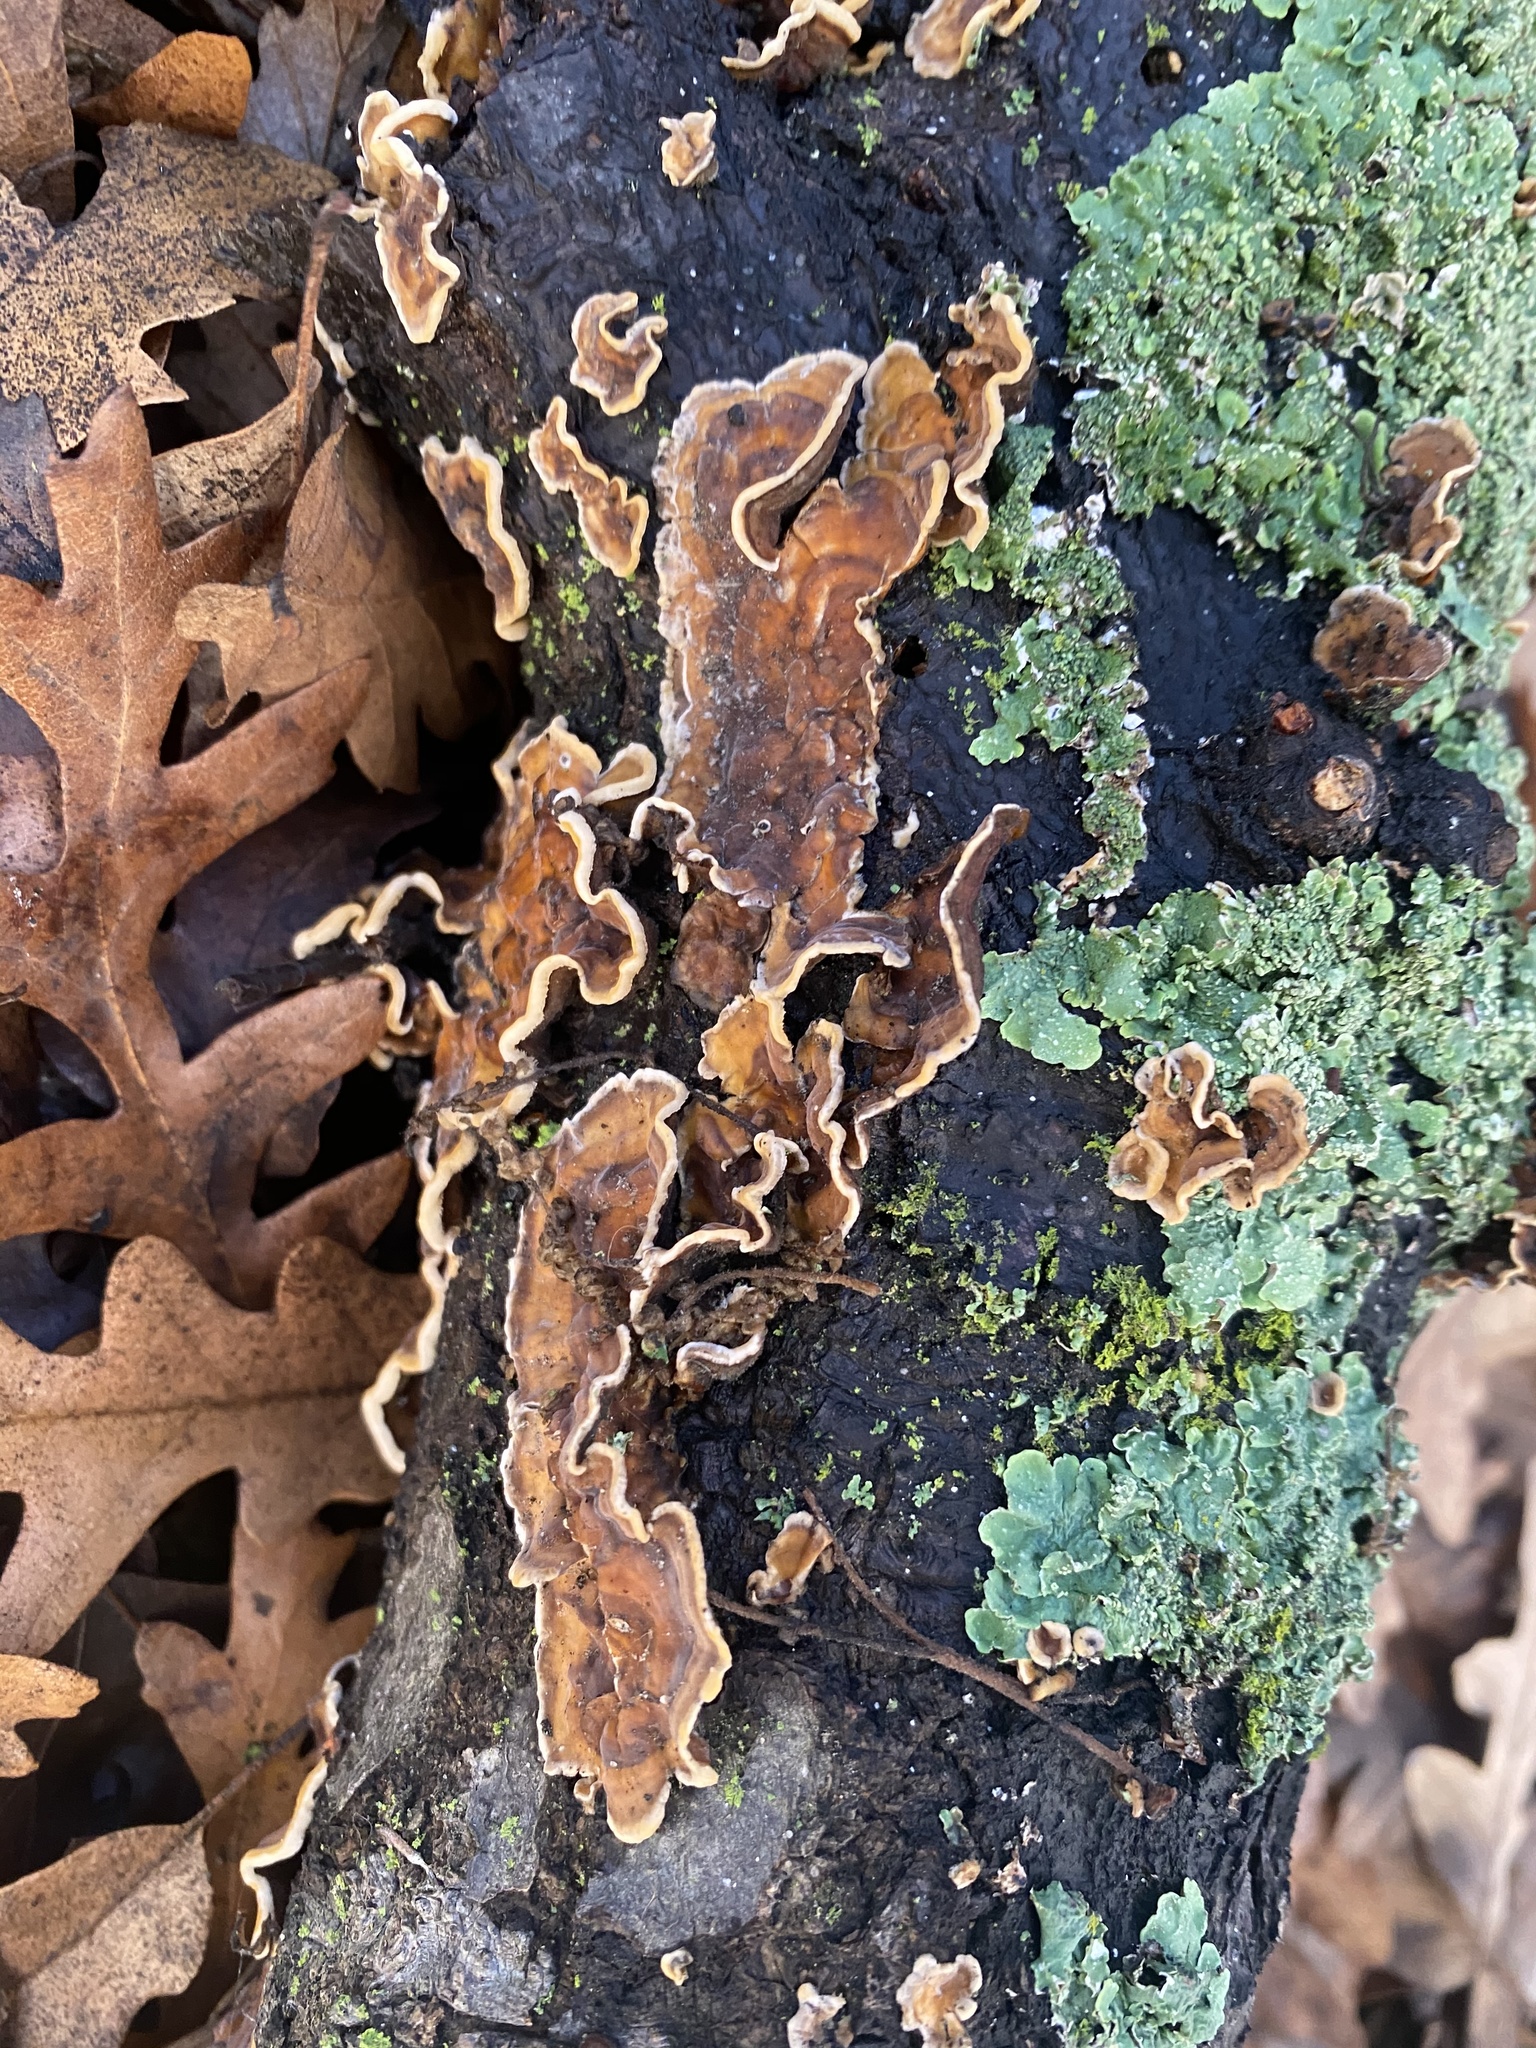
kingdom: Fungi
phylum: Basidiomycota
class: Agaricomycetes
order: Russulales
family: Stereaceae
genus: Stereum
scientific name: Stereum hirsutum
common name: Hairy curtain crust
